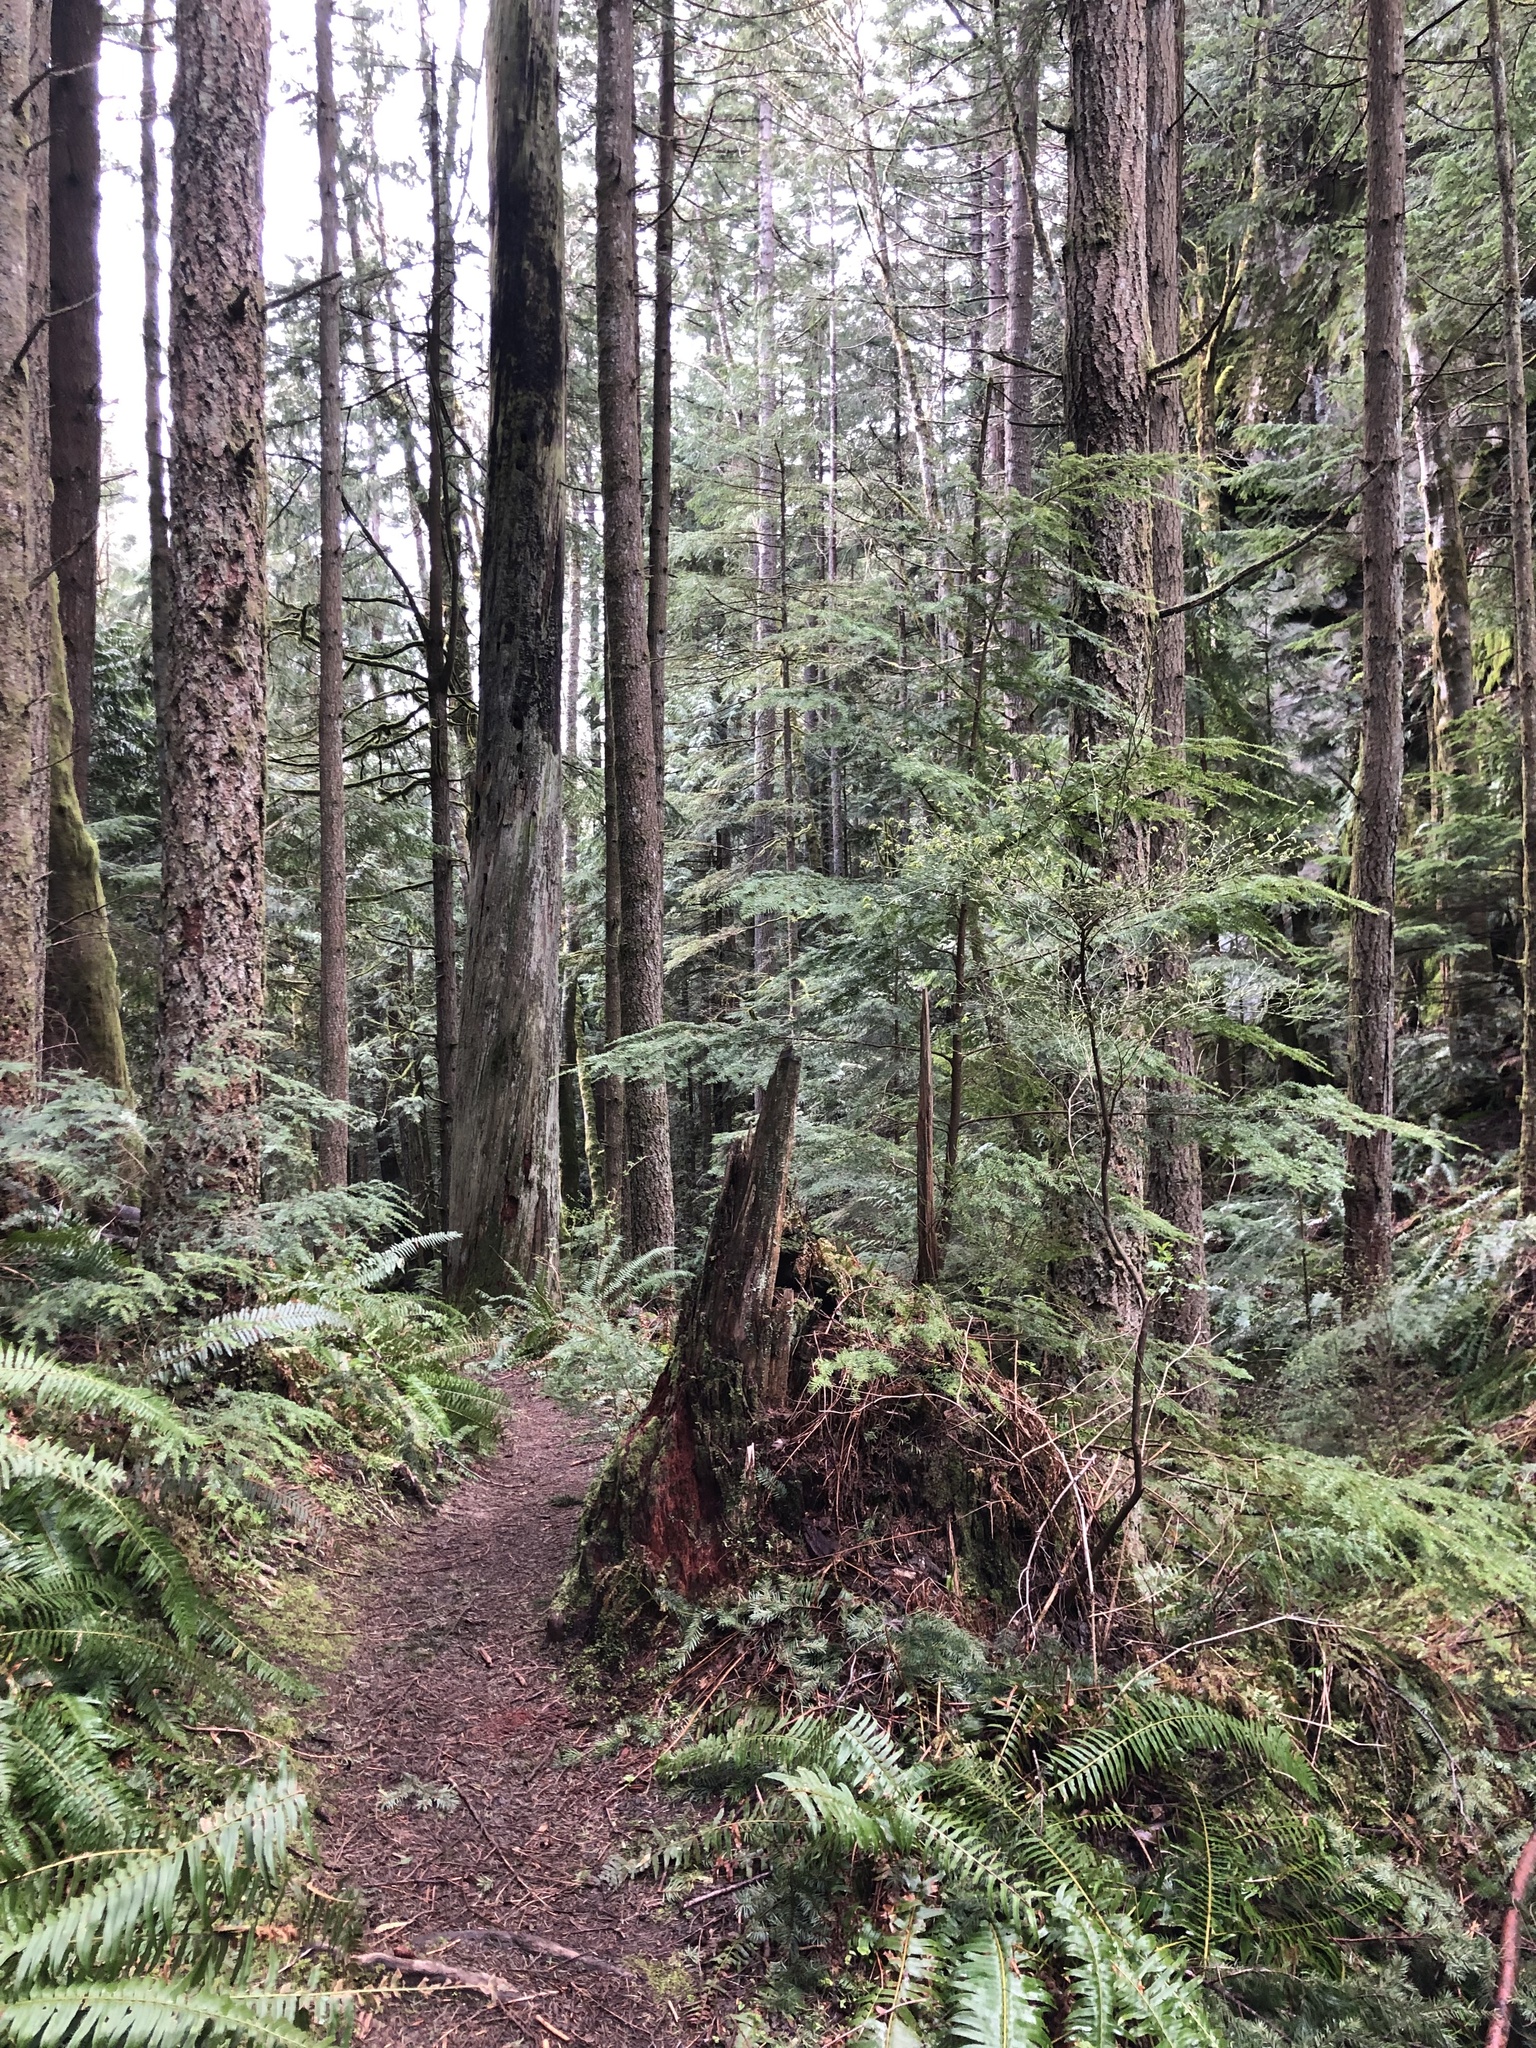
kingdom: Plantae
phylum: Tracheophyta
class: Pinopsida
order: Pinales
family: Pinaceae
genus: Tsuga
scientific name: Tsuga heterophylla
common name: Western hemlock
